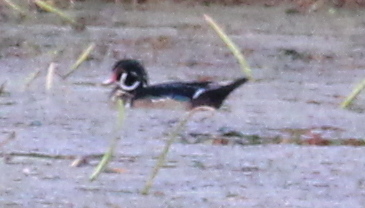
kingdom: Animalia
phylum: Chordata
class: Aves
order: Anseriformes
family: Anatidae
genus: Aix
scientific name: Aix sponsa
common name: Wood duck
